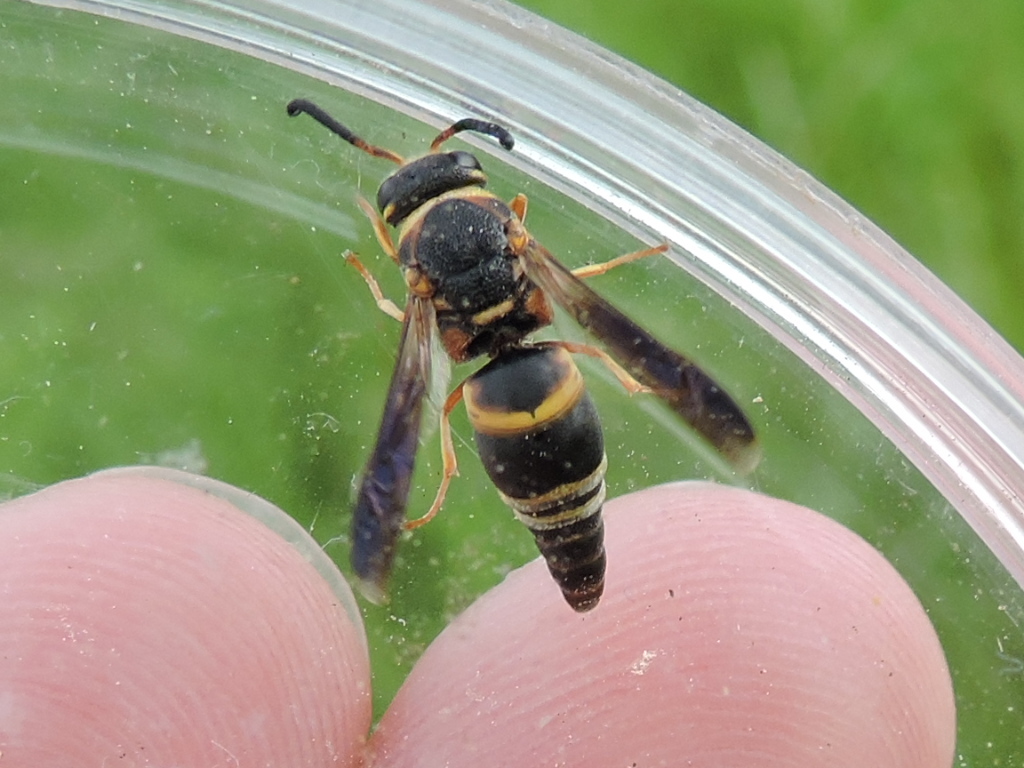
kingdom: Animalia
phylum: Arthropoda
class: Insecta
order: Hymenoptera
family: Eumenidae
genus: Euodynerus
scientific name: Euodynerus hidalgo
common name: Wasp
